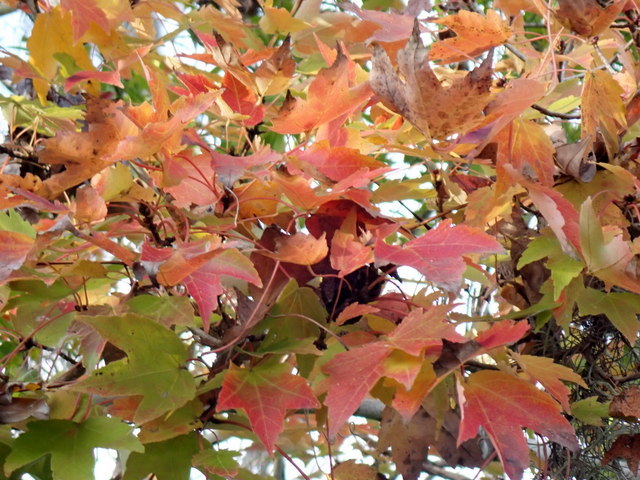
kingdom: Plantae
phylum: Tracheophyta
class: Magnoliopsida
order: Sapindales
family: Sapindaceae
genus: Acer
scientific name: Acer rubrum
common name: Red maple
